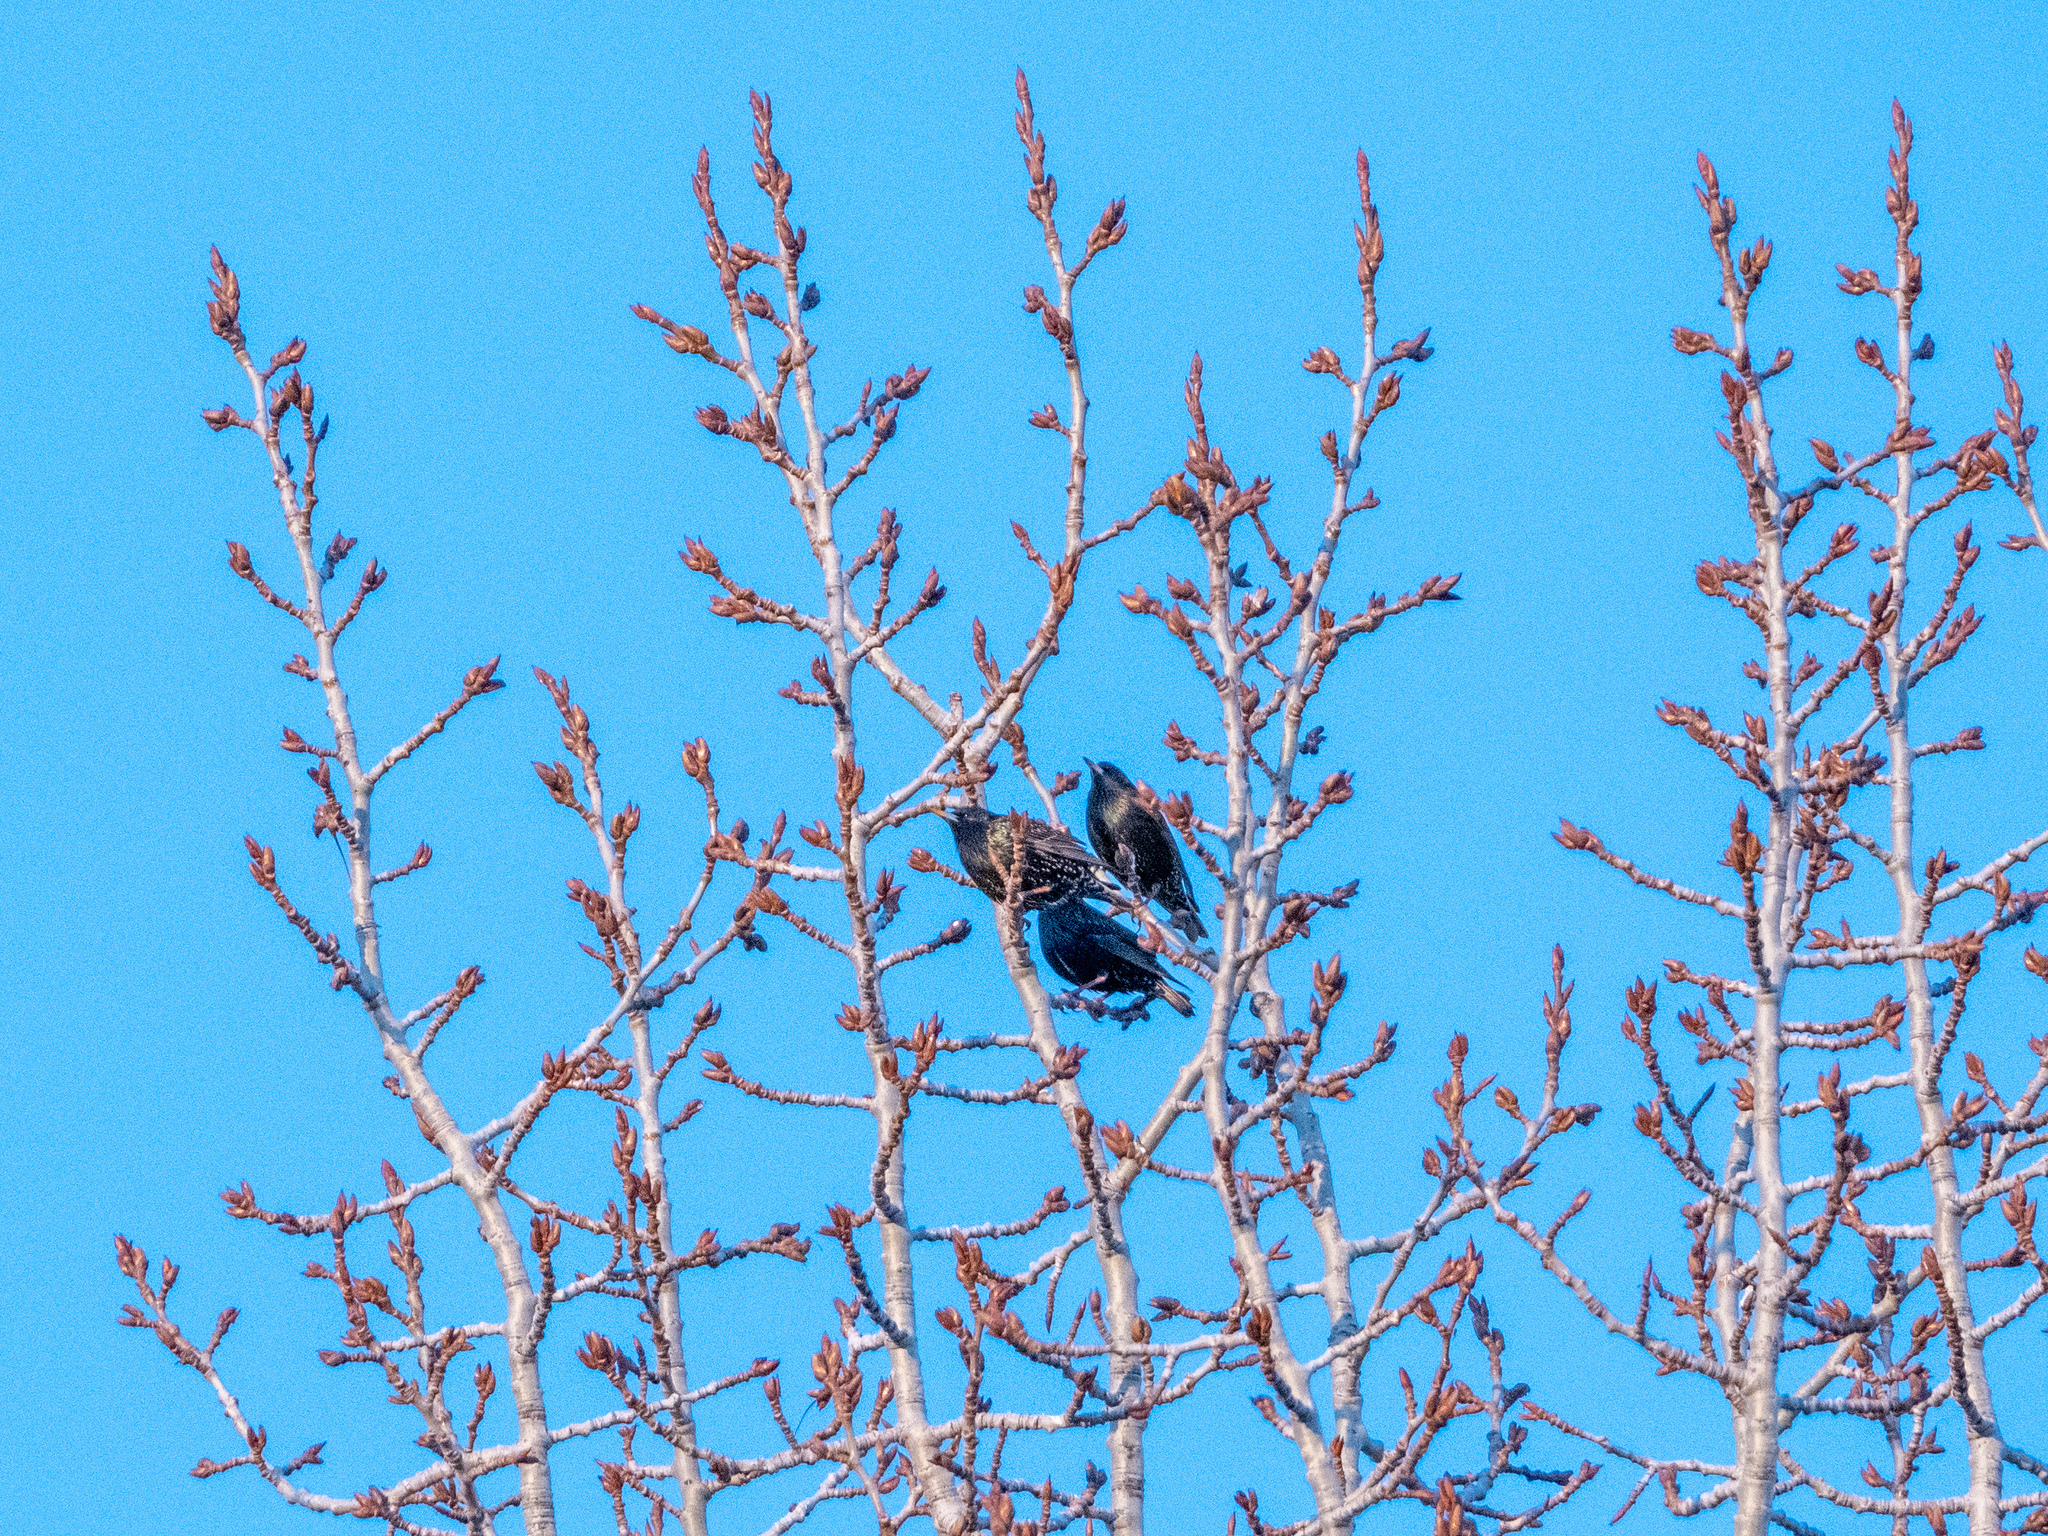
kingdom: Animalia
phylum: Chordata
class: Aves
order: Passeriformes
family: Sturnidae
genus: Sturnus
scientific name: Sturnus vulgaris
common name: Common starling
